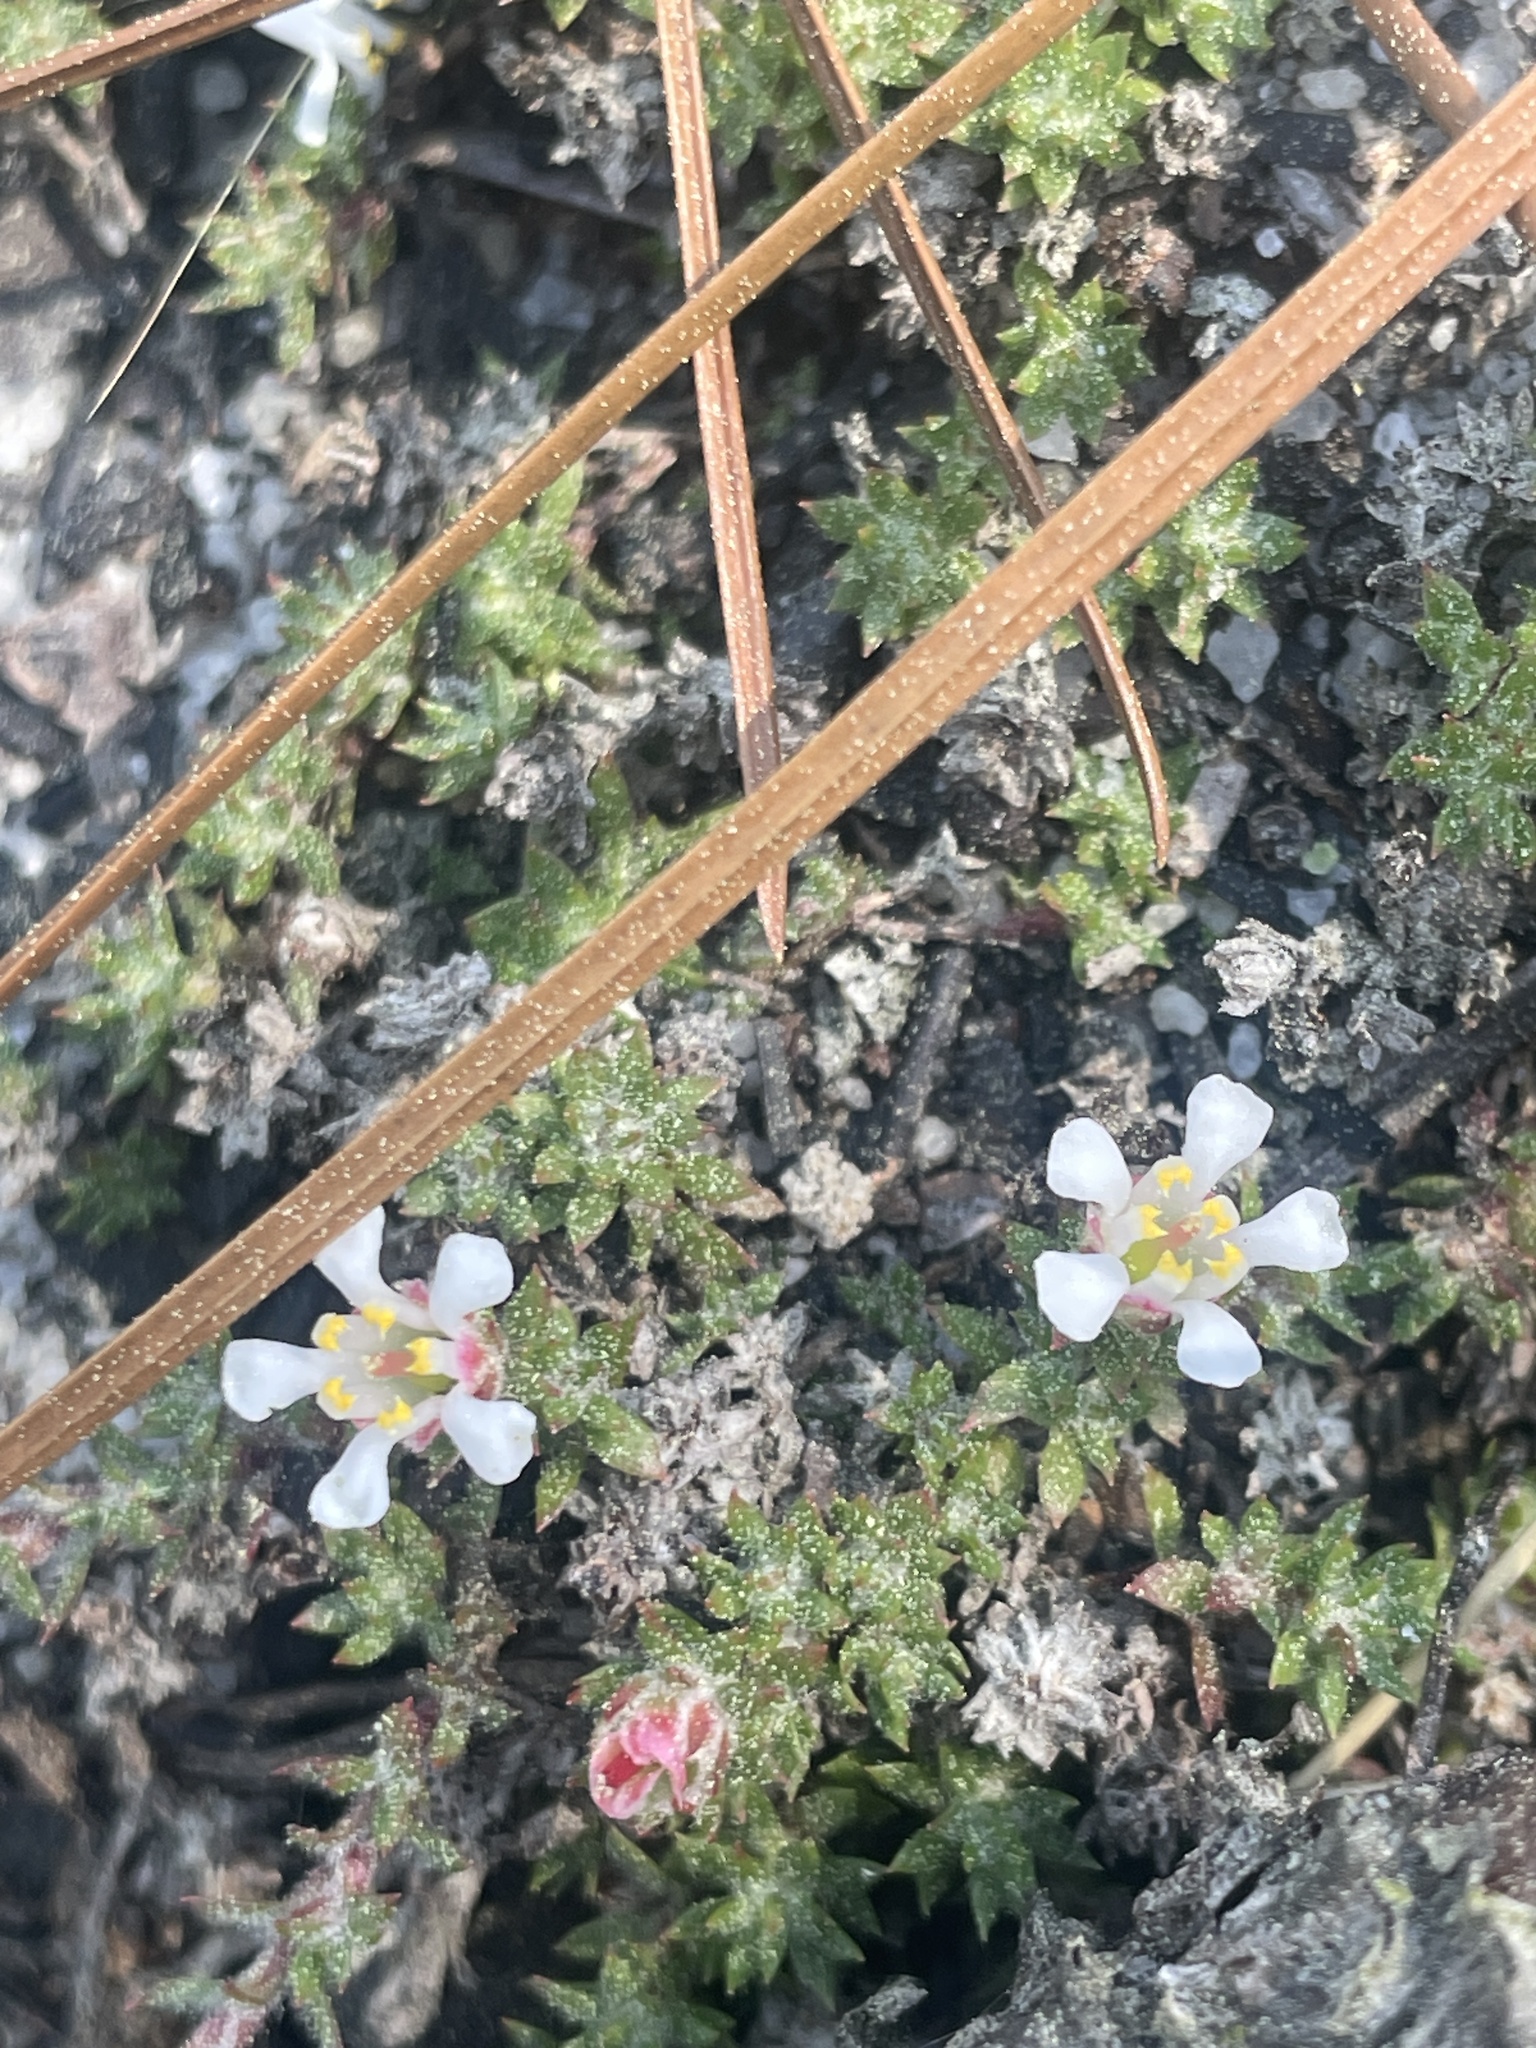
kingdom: Plantae
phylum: Tracheophyta
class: Magnoliopsida
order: Ericales
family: Diapensiaceae
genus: Pyxidanthera
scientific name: Pyxidanthera brevifolia
